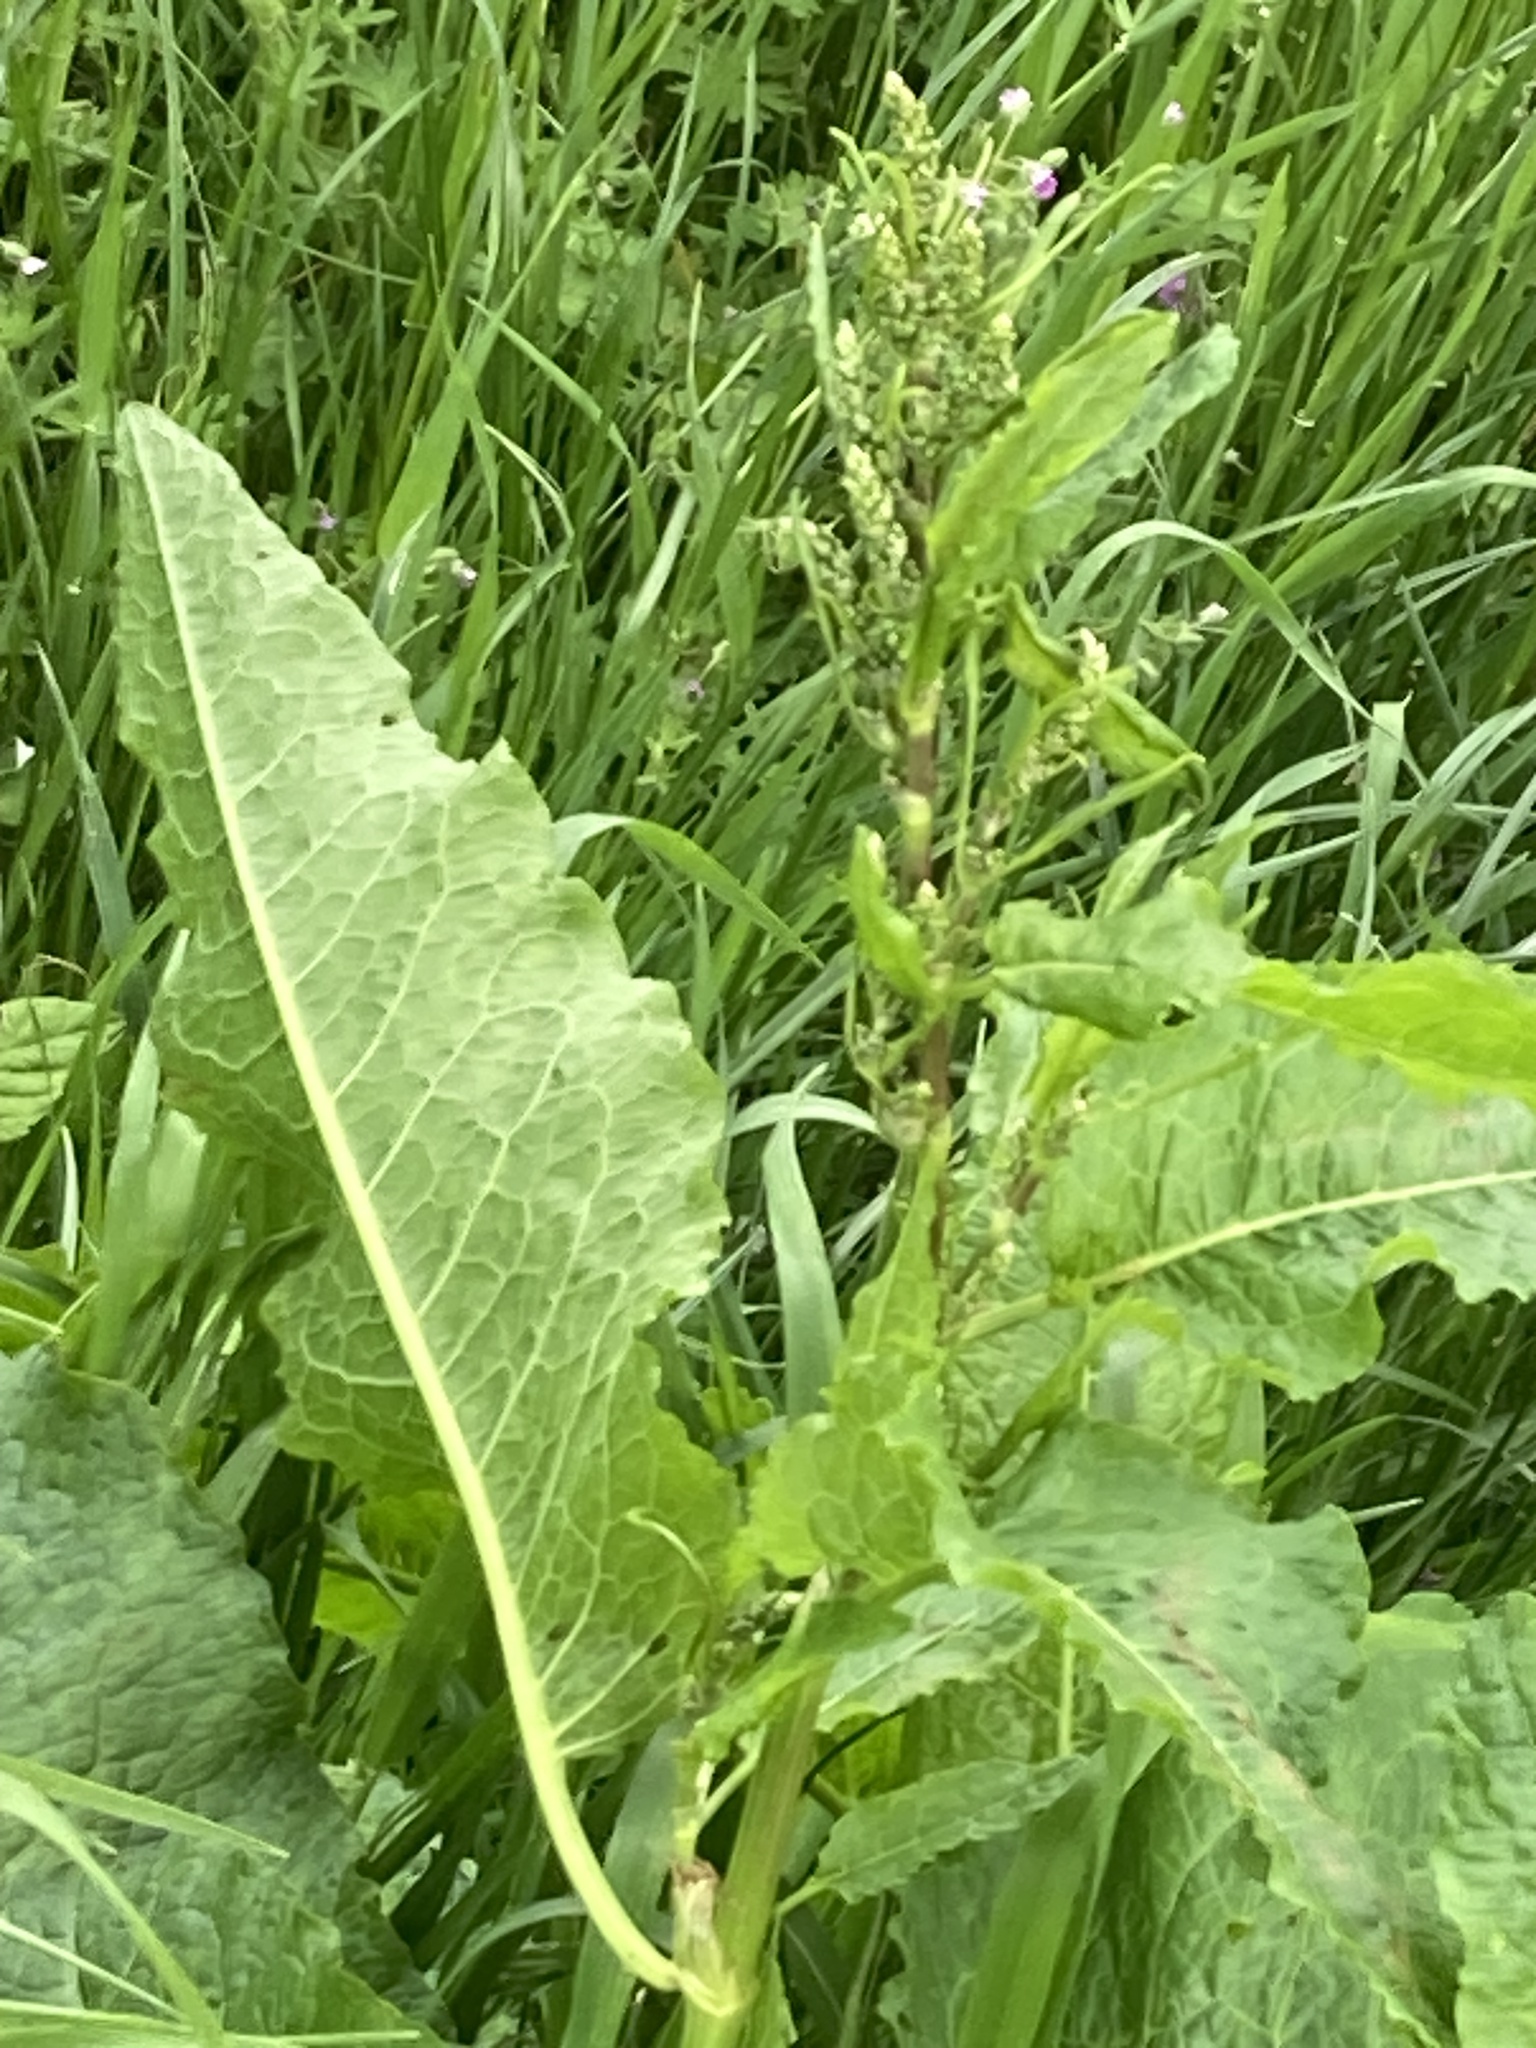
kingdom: Plantae
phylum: Tracheophyta
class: Magnoliopsida
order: Caryophyllales
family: Polygonaceae
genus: Rumex
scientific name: Rumex obtusifolius
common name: Bitter dock
